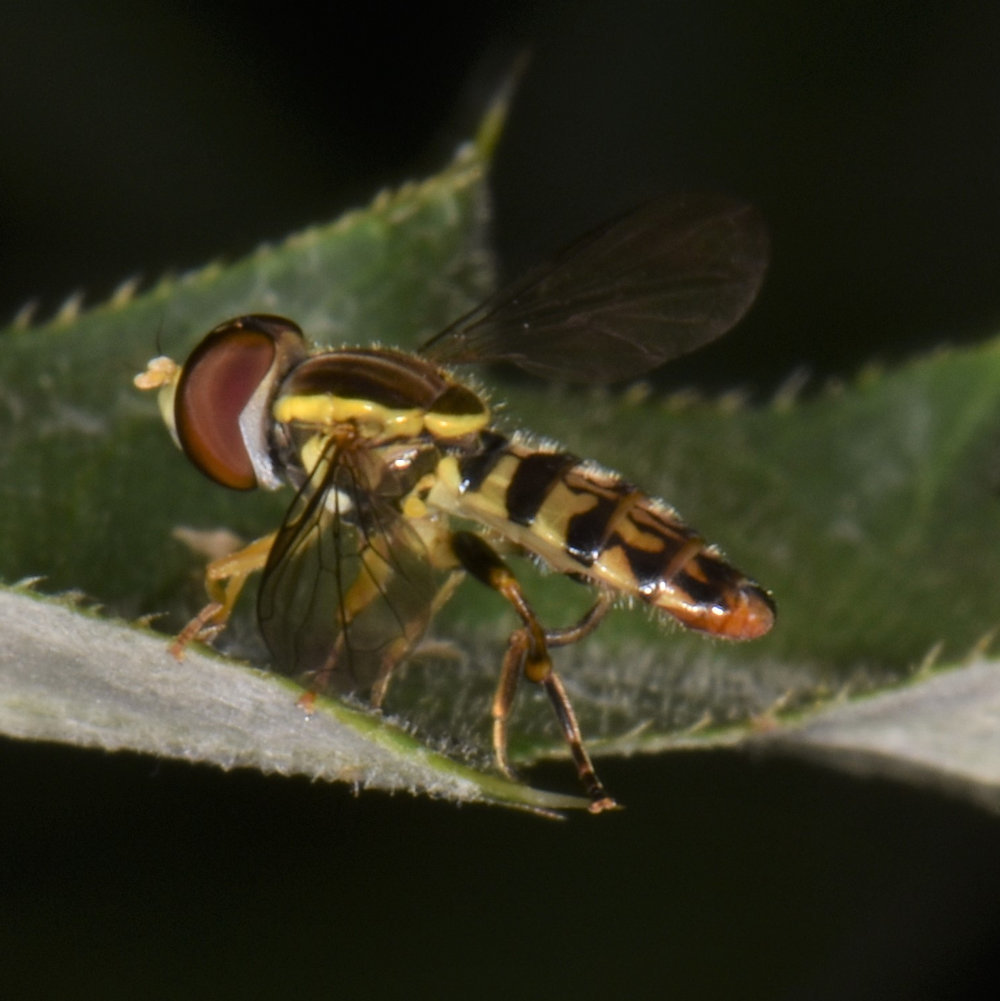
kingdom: Animalia
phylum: Arthropoda
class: Insecta
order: Diptera
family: Syrphidae
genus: Toxomerus
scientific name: Toxomerus geminatus
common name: Eastern calligrapher
